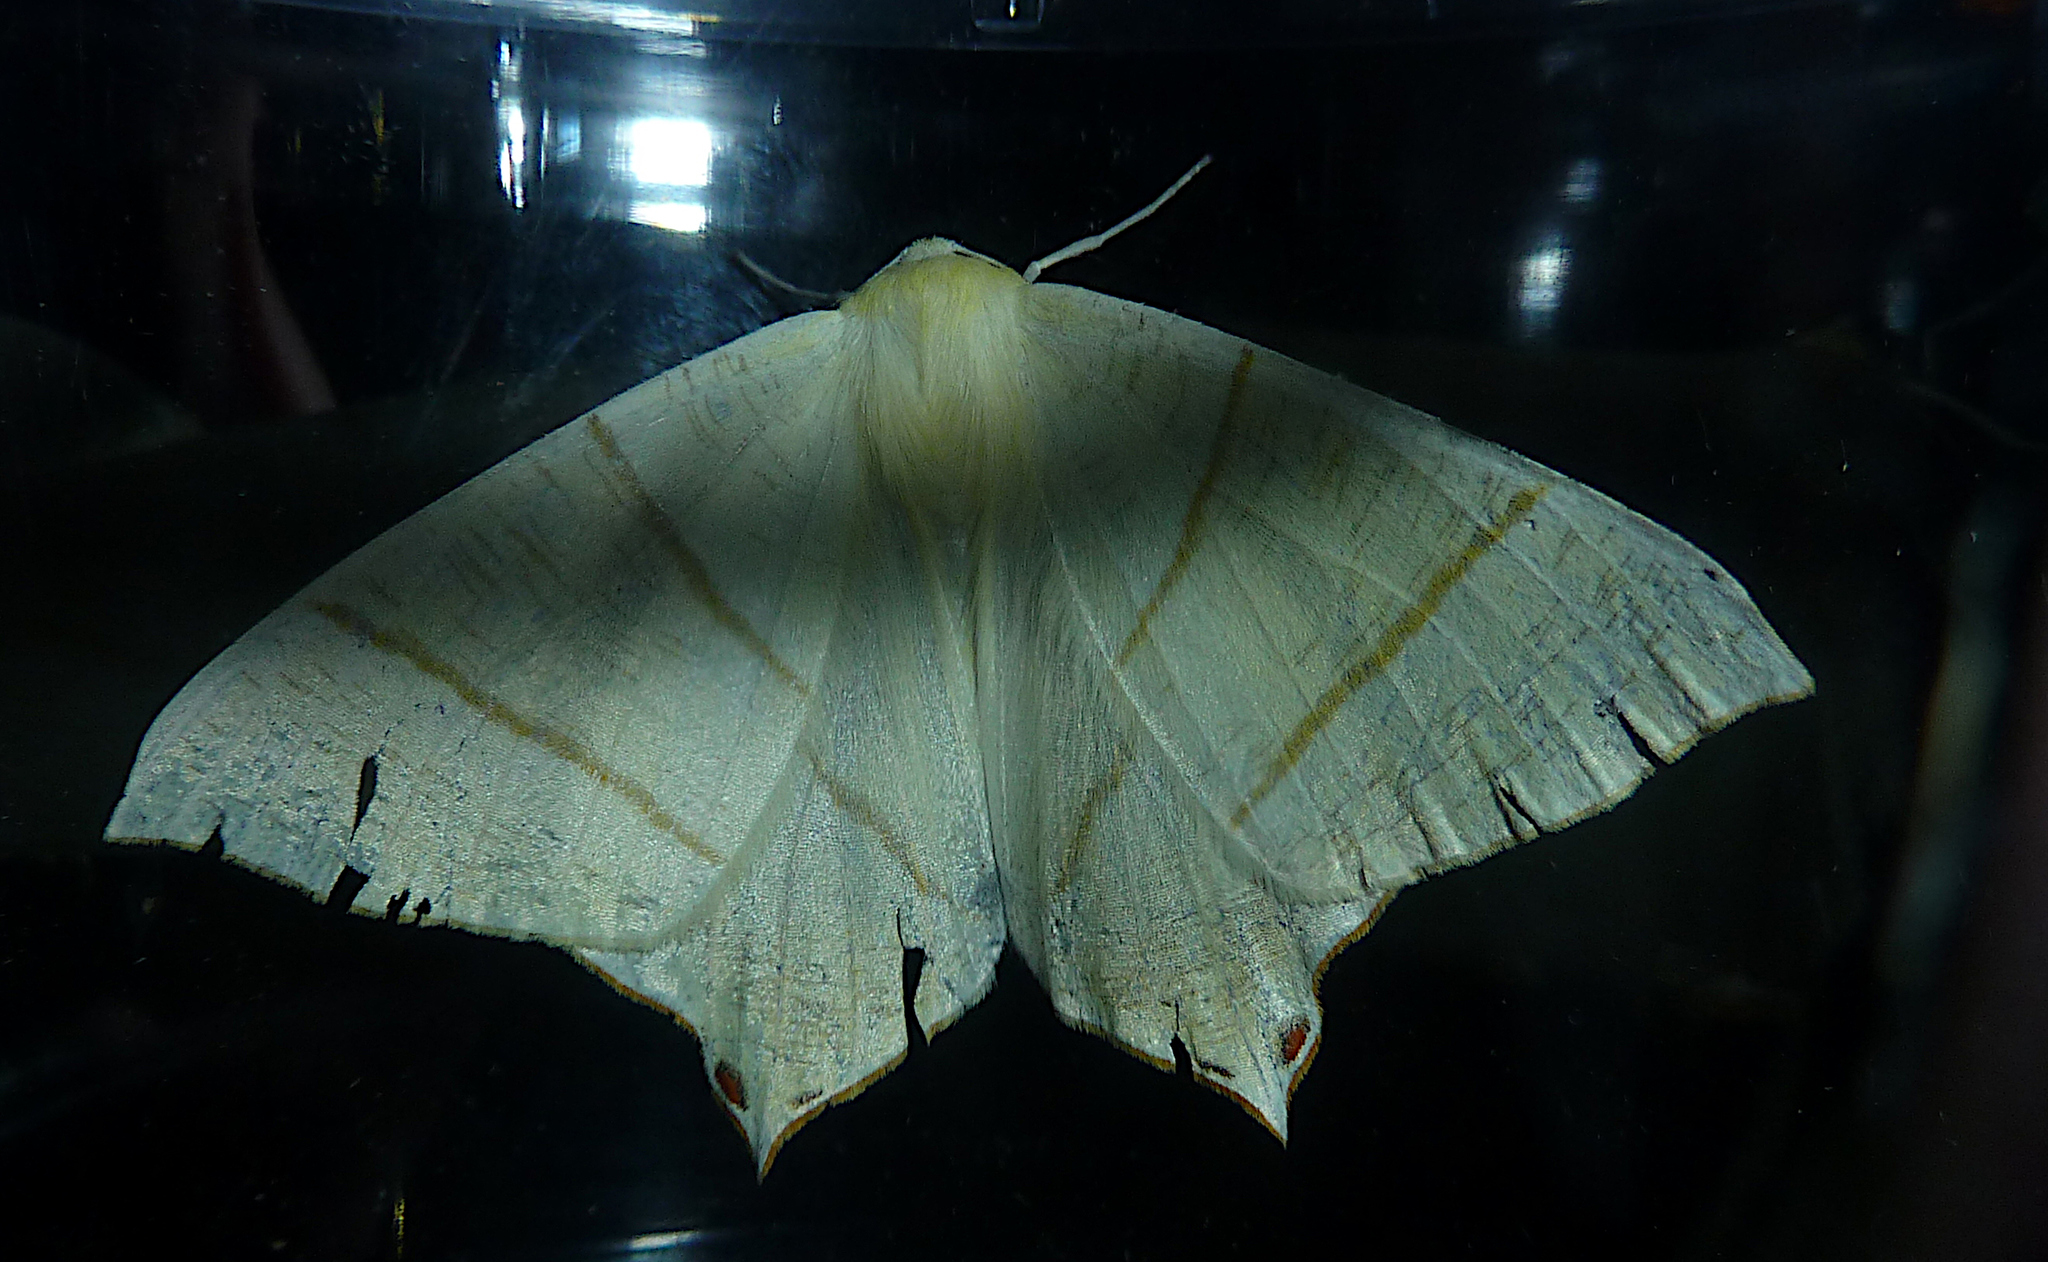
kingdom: Animalia
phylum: Arthropoda
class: Insecta
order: Lepidoptera
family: Geometridae
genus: Ourapteryx
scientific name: Ourapteryx sambucaria
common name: Swallow-tailed moth
